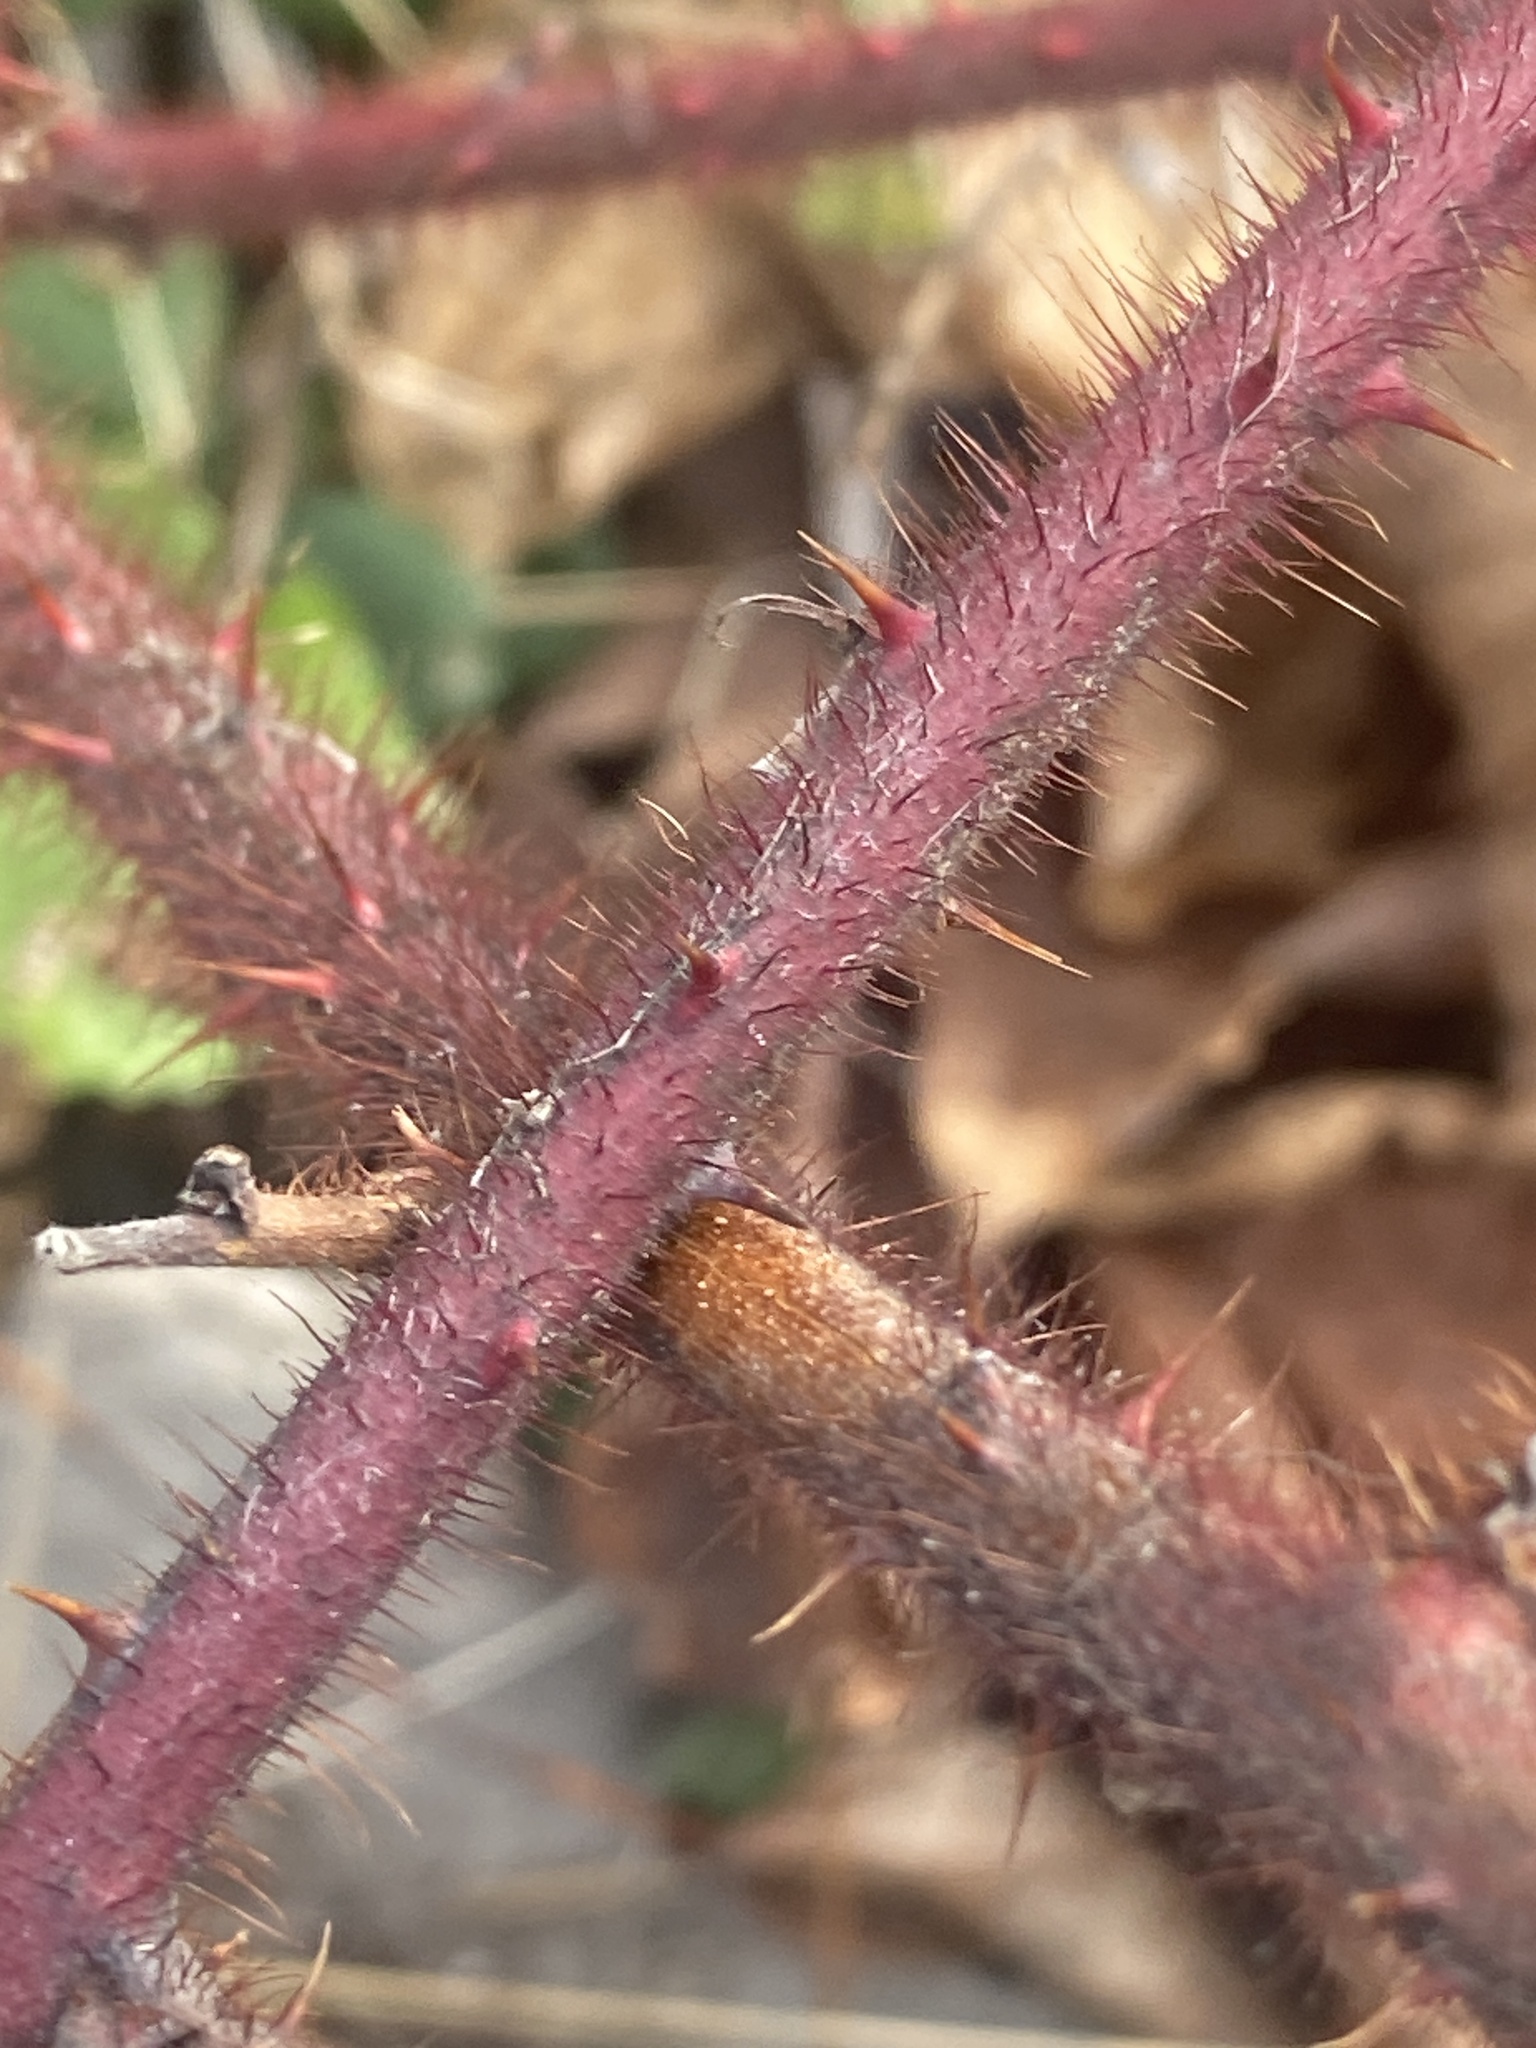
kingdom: Plantae
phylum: Tracheophyta
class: Magnoliopsida
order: Rosales
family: Rosaceae
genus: Rubus
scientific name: Rubus phoenicolasius
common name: Japanese wineberry
